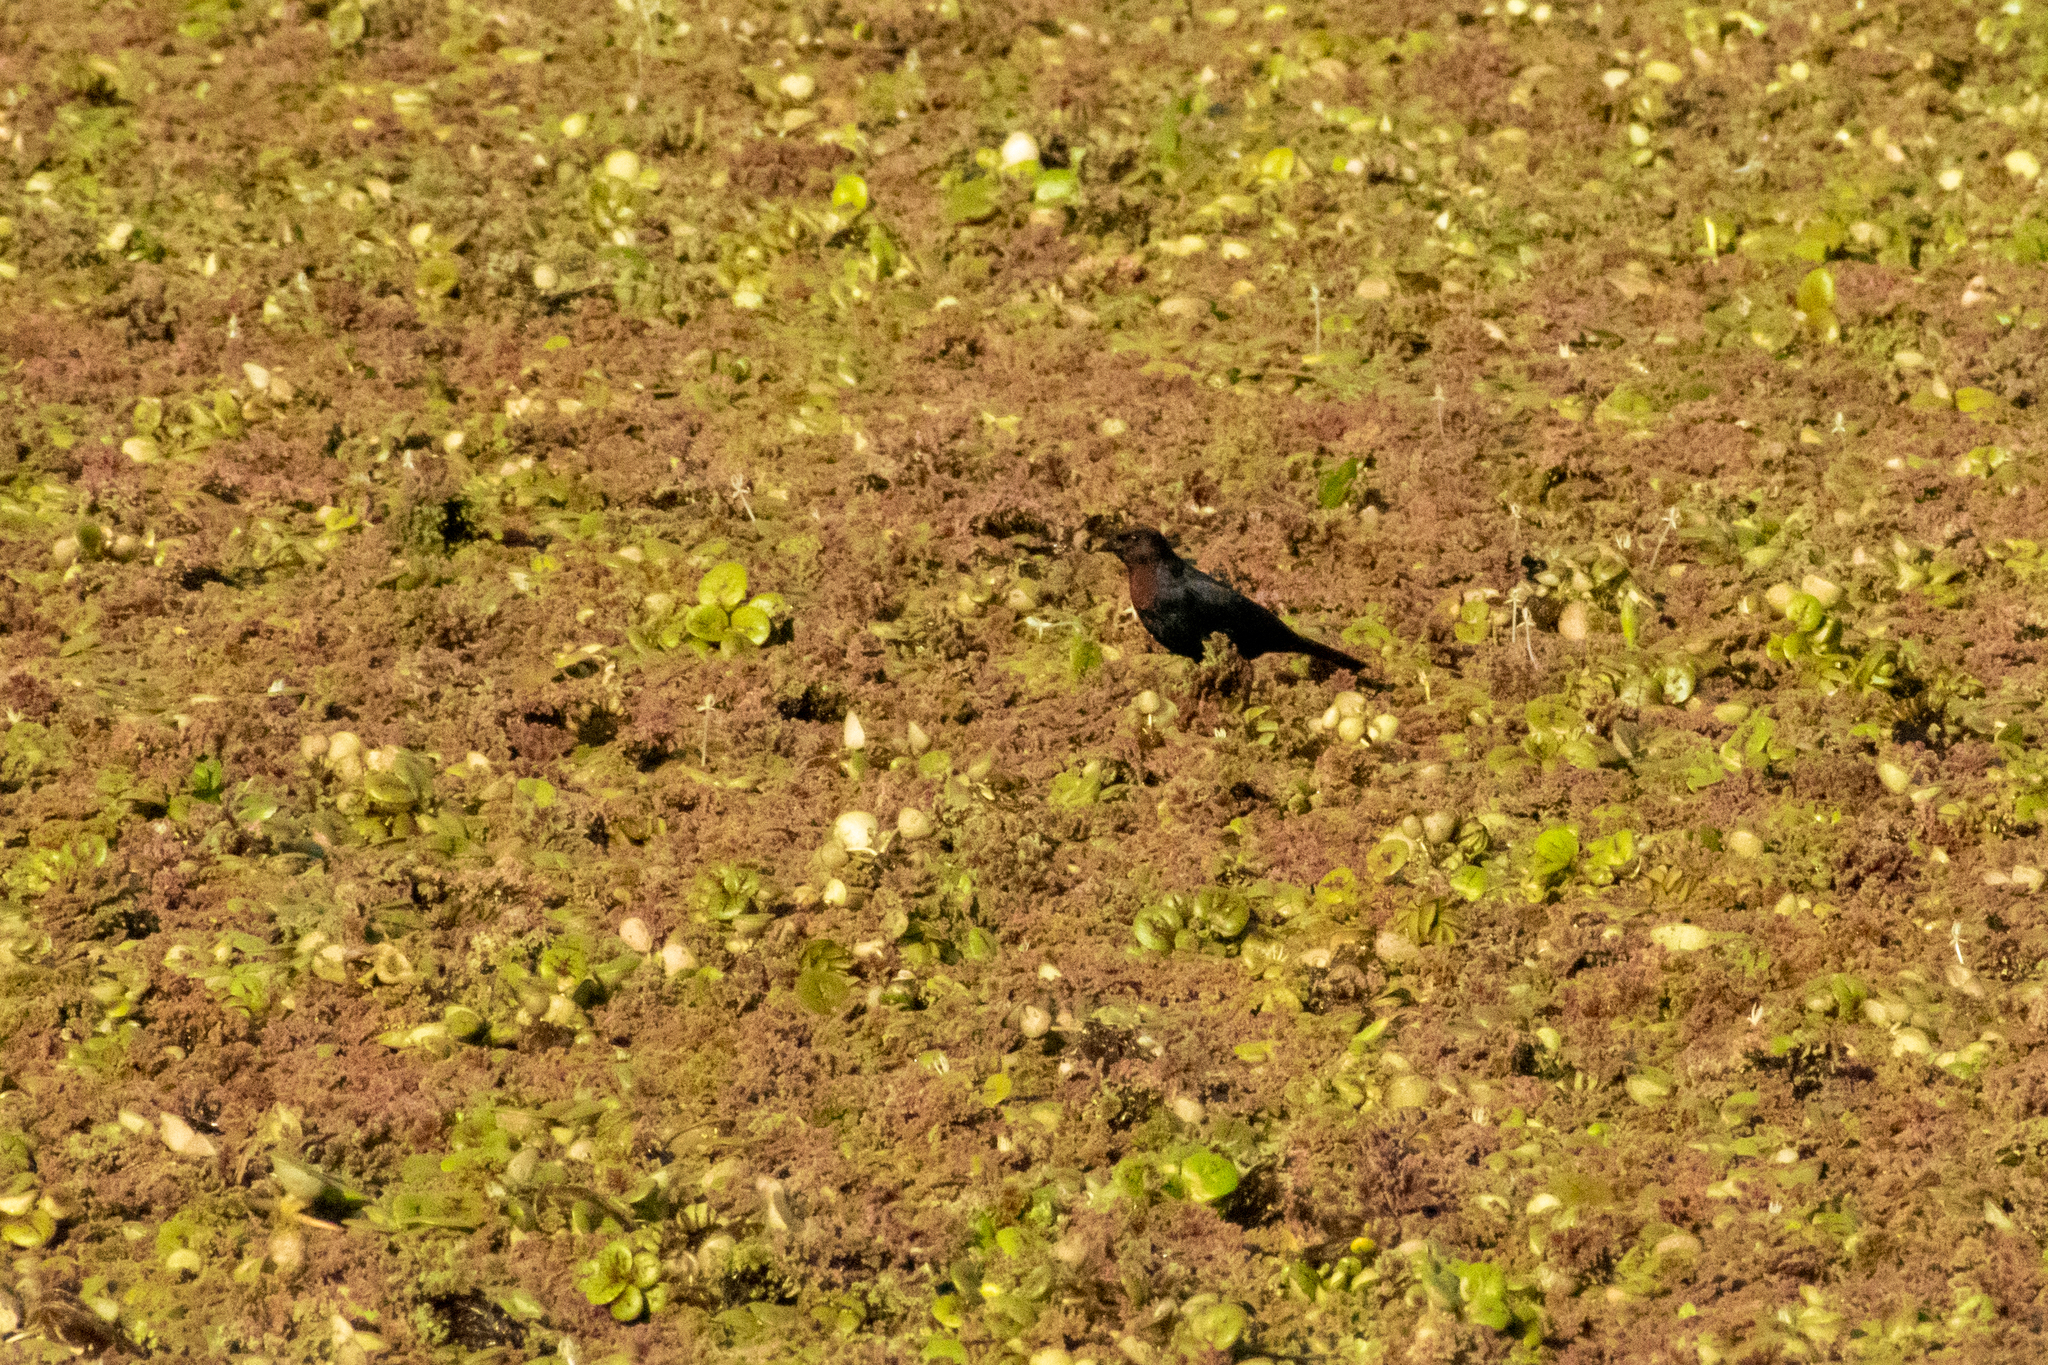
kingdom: Animalia
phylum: Chordata
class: Aves
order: Passeriformes
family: Icteridae
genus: Chrysomus
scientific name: Chrysomus ruficapillus
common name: Chestnut-capped blackbird
